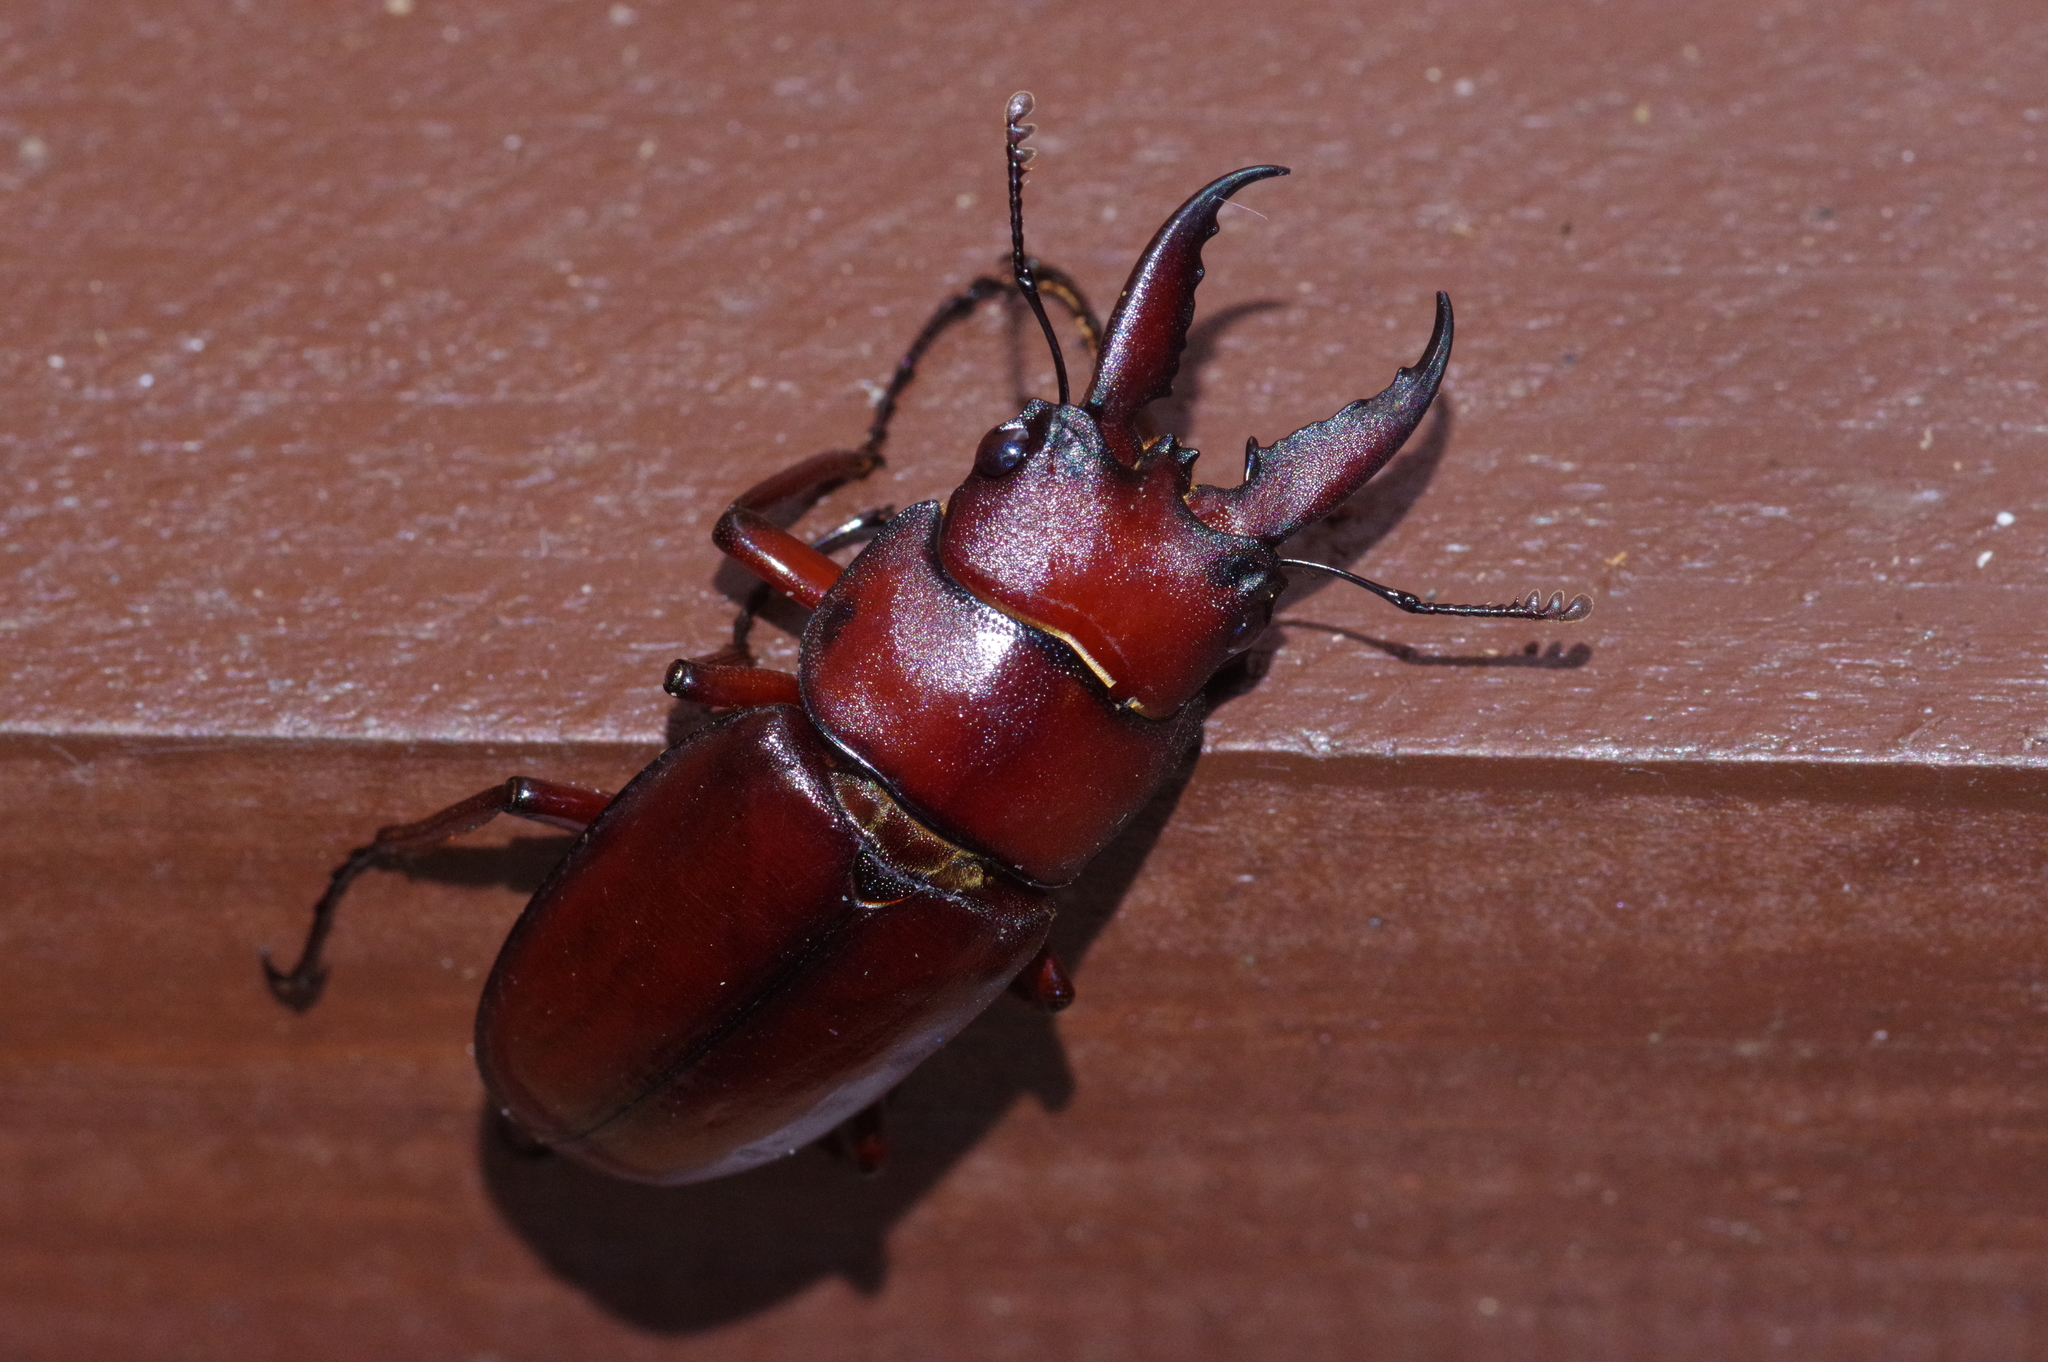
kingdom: Animalia
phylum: Arthropoda
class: Insecta
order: Coleoptera
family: Lucanidae
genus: Prosopocoilus
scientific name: Prosopocoilus dissimilis
